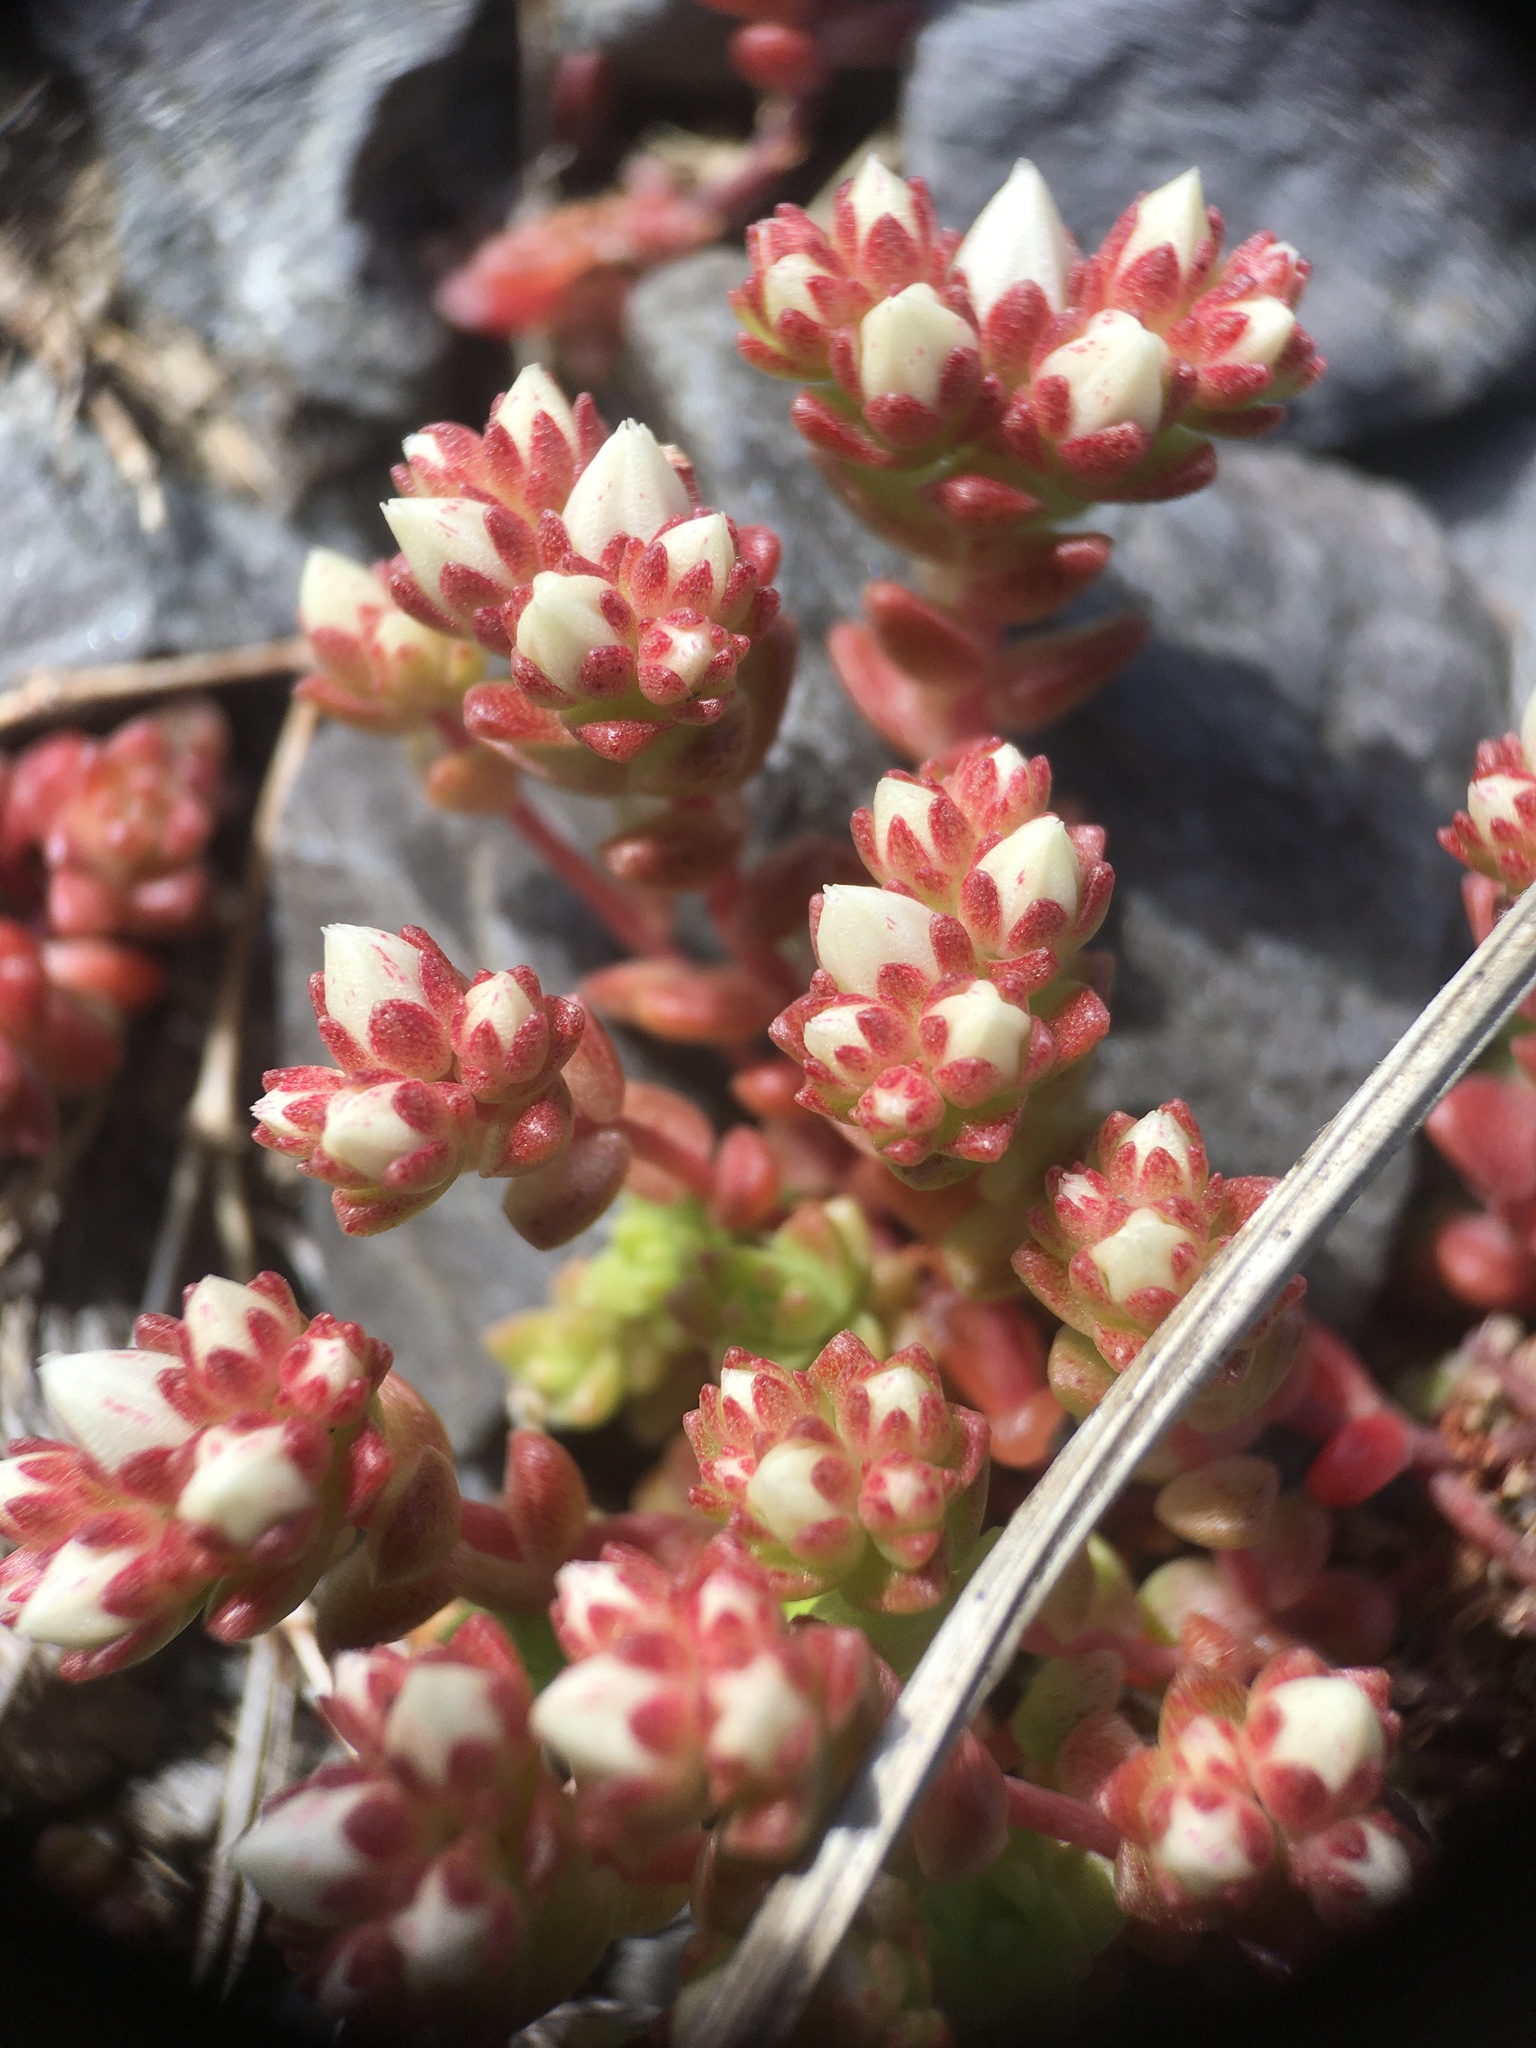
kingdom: Plantae
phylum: Tracheophyta
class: Magnoliopsida
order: Saxifragales
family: Crassulaceae
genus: Sedum
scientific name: Sedum anglicum
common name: English stonecrop
